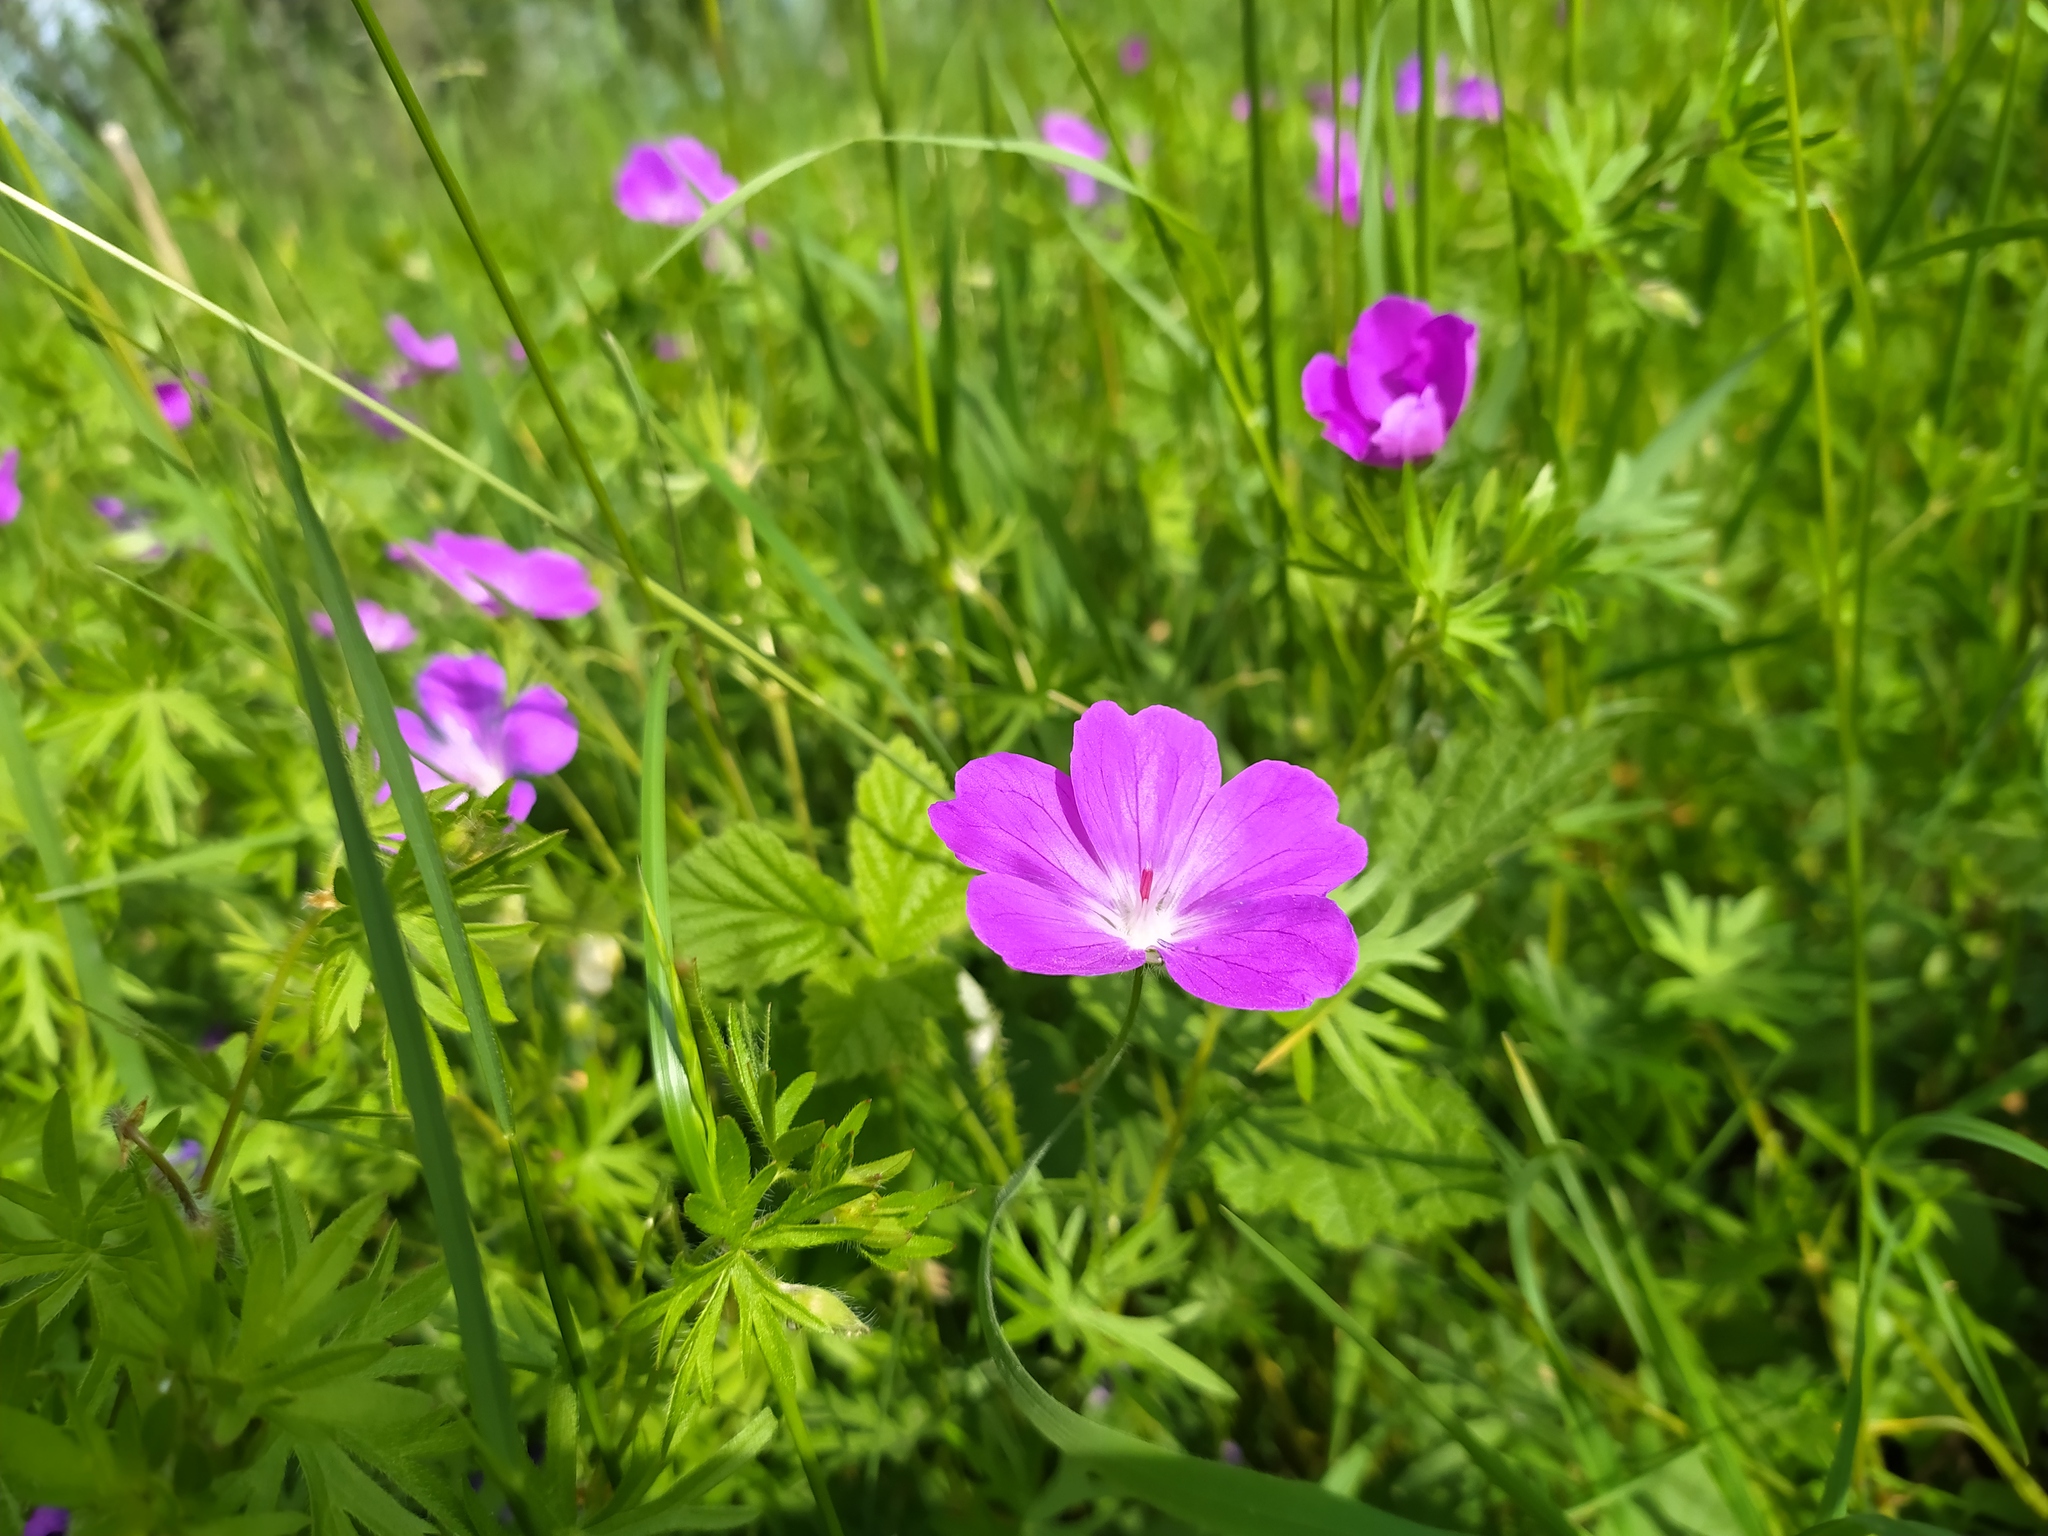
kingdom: Plantae
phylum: Tracheophyta
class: Magnoliopsida
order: Geraniales
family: Geraniaceae
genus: Geranium
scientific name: Geranium sanguineum
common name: Bloody crane's-bill
